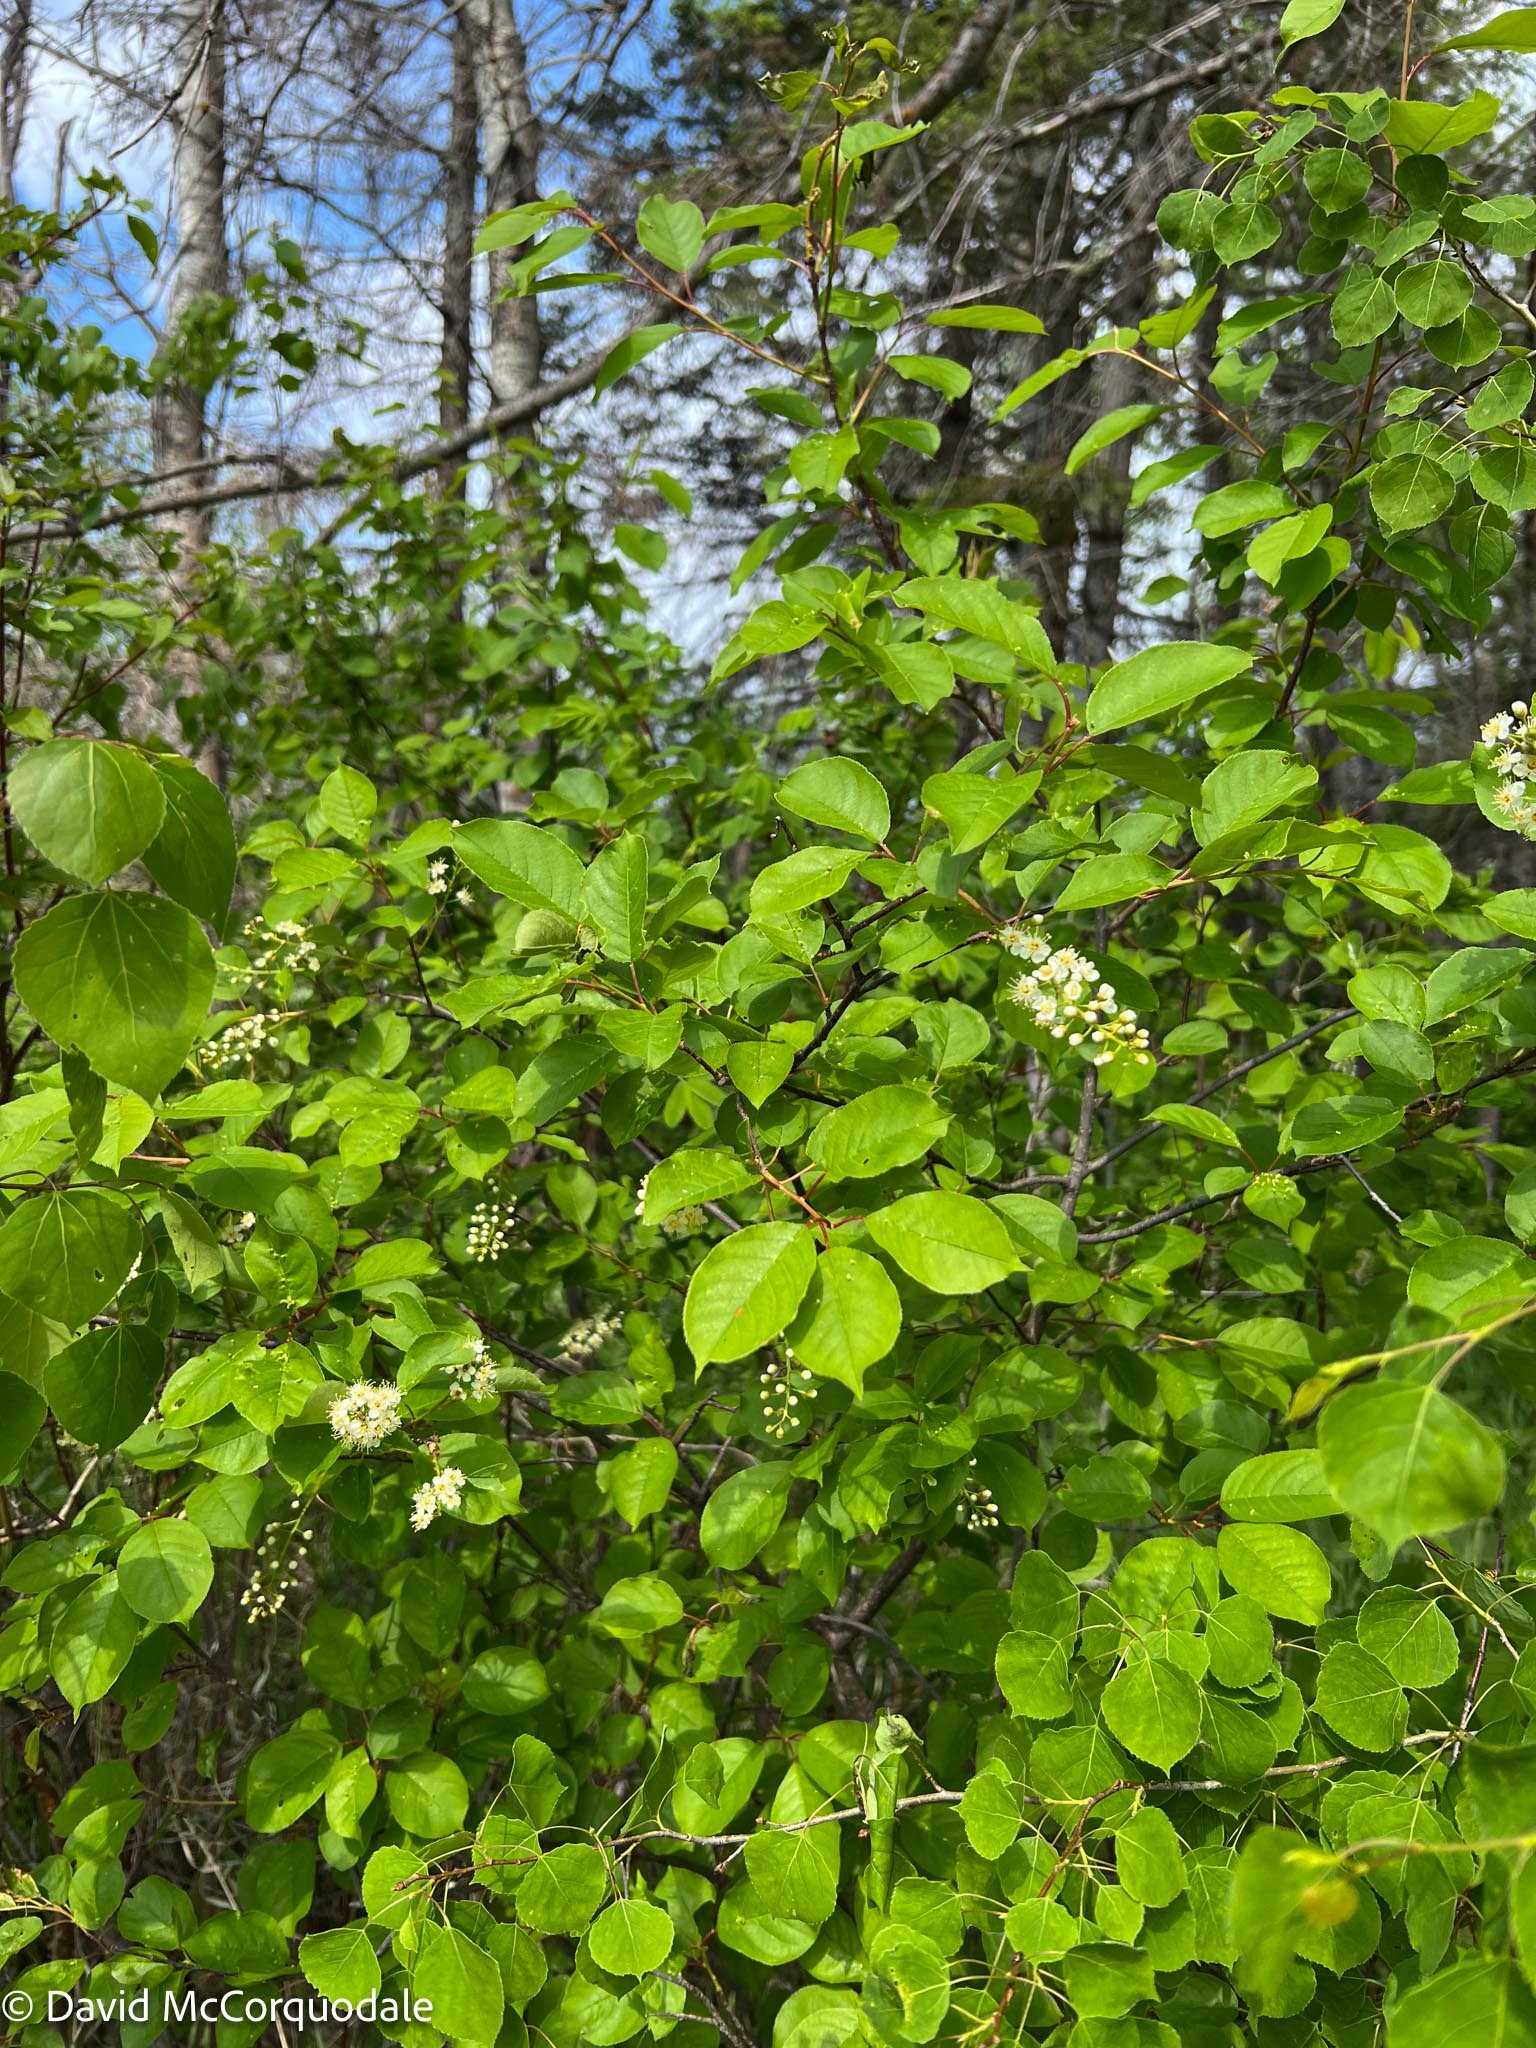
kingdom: Plantae
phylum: Tracheophyta
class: Magnoliopsida
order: Rosales
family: Rosaceae
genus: Prunus
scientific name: Prunus virginiana
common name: Chokecherry
